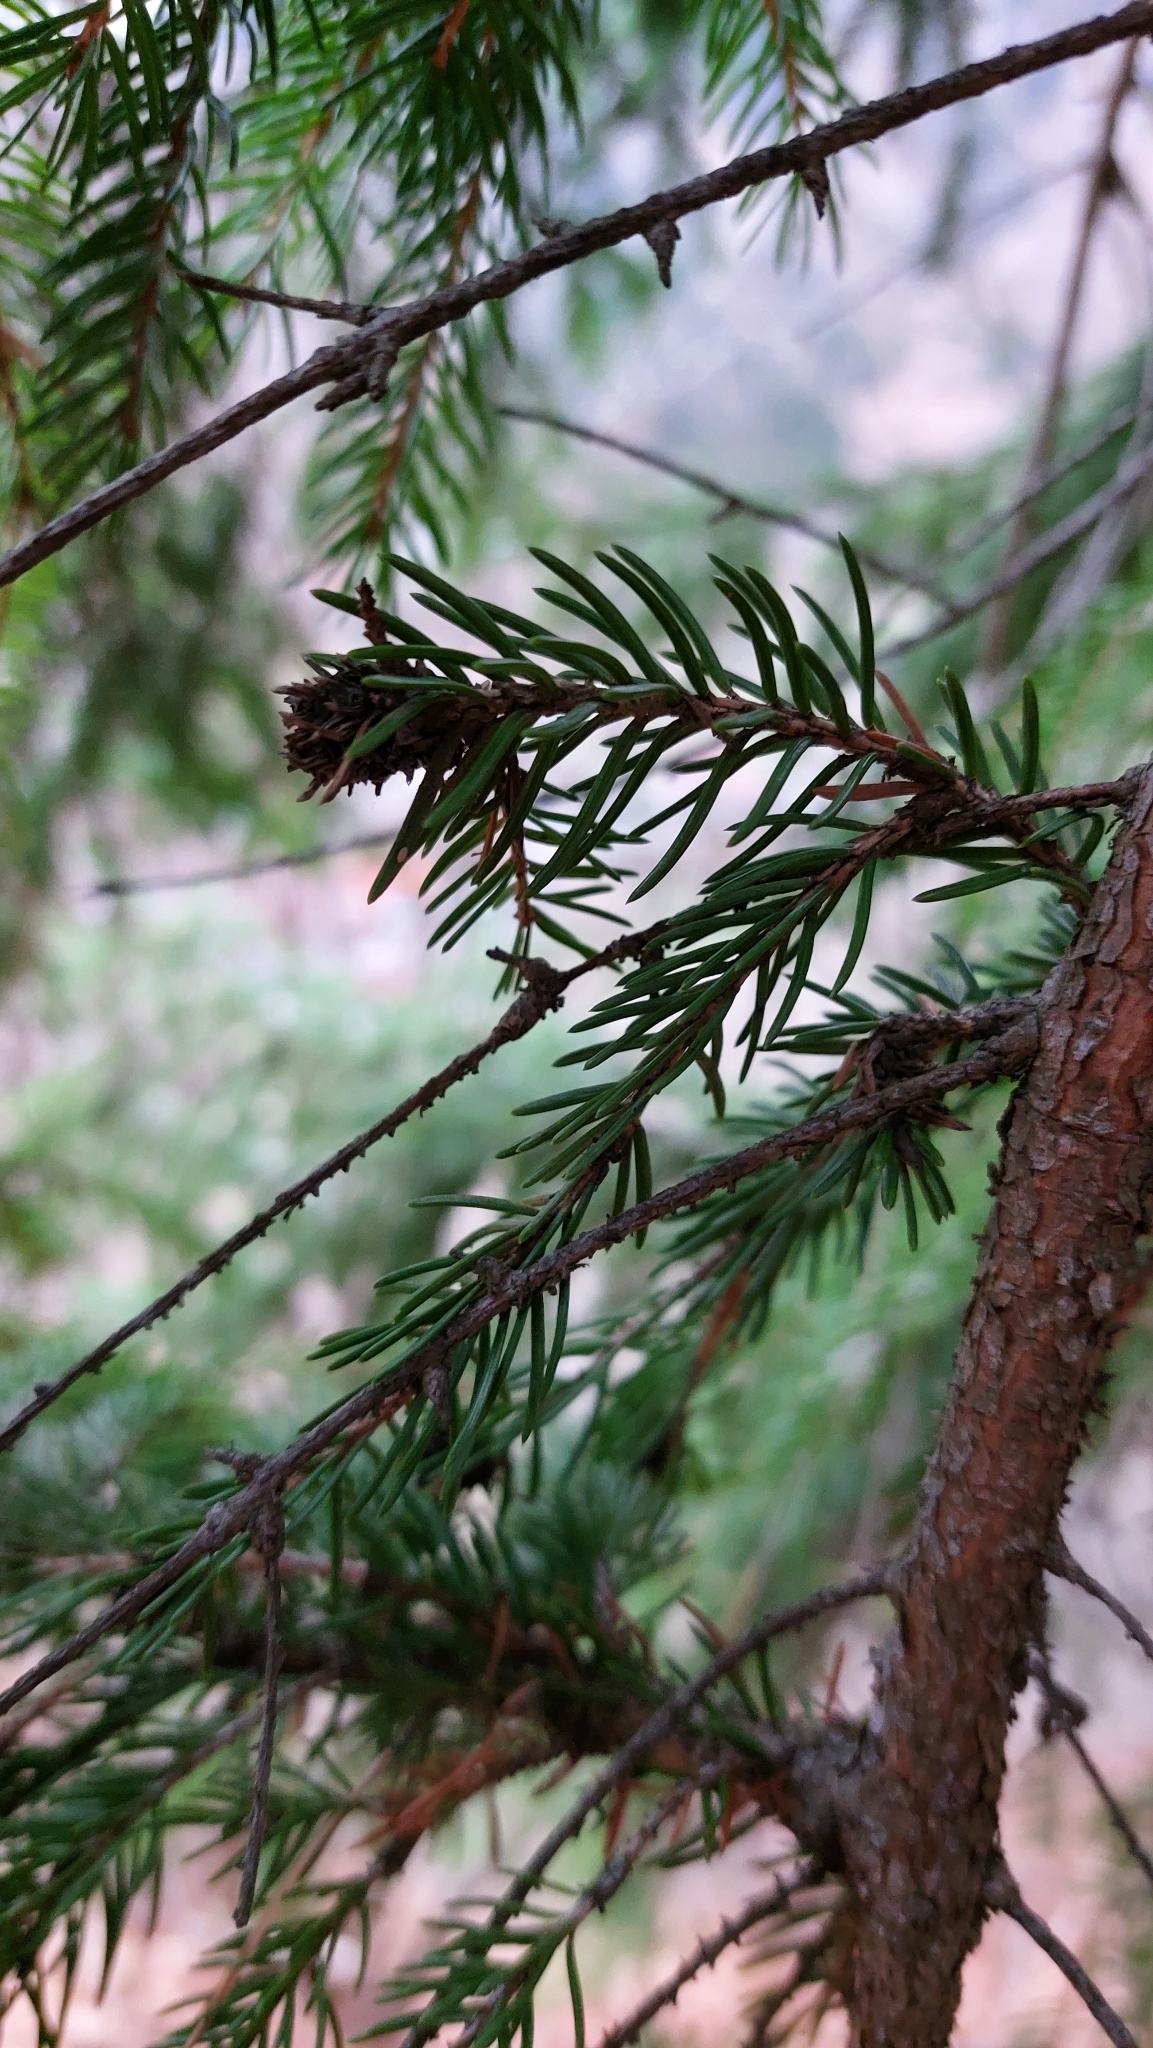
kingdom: Plantae
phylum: Tracheophyta
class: Pinopsida
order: Pinales
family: Pinaceae
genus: Picea
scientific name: Picea abies
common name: Norway spruce
